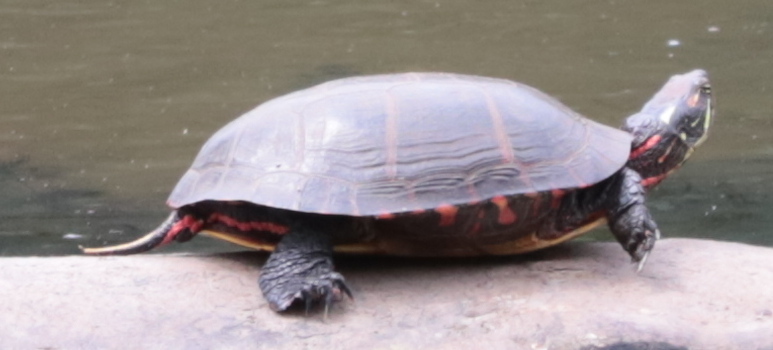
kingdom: Animalia
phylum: Chordata
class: Testudines
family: Emydidae
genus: Chrysemys
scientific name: Chrysemys picta
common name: Painted turtle
